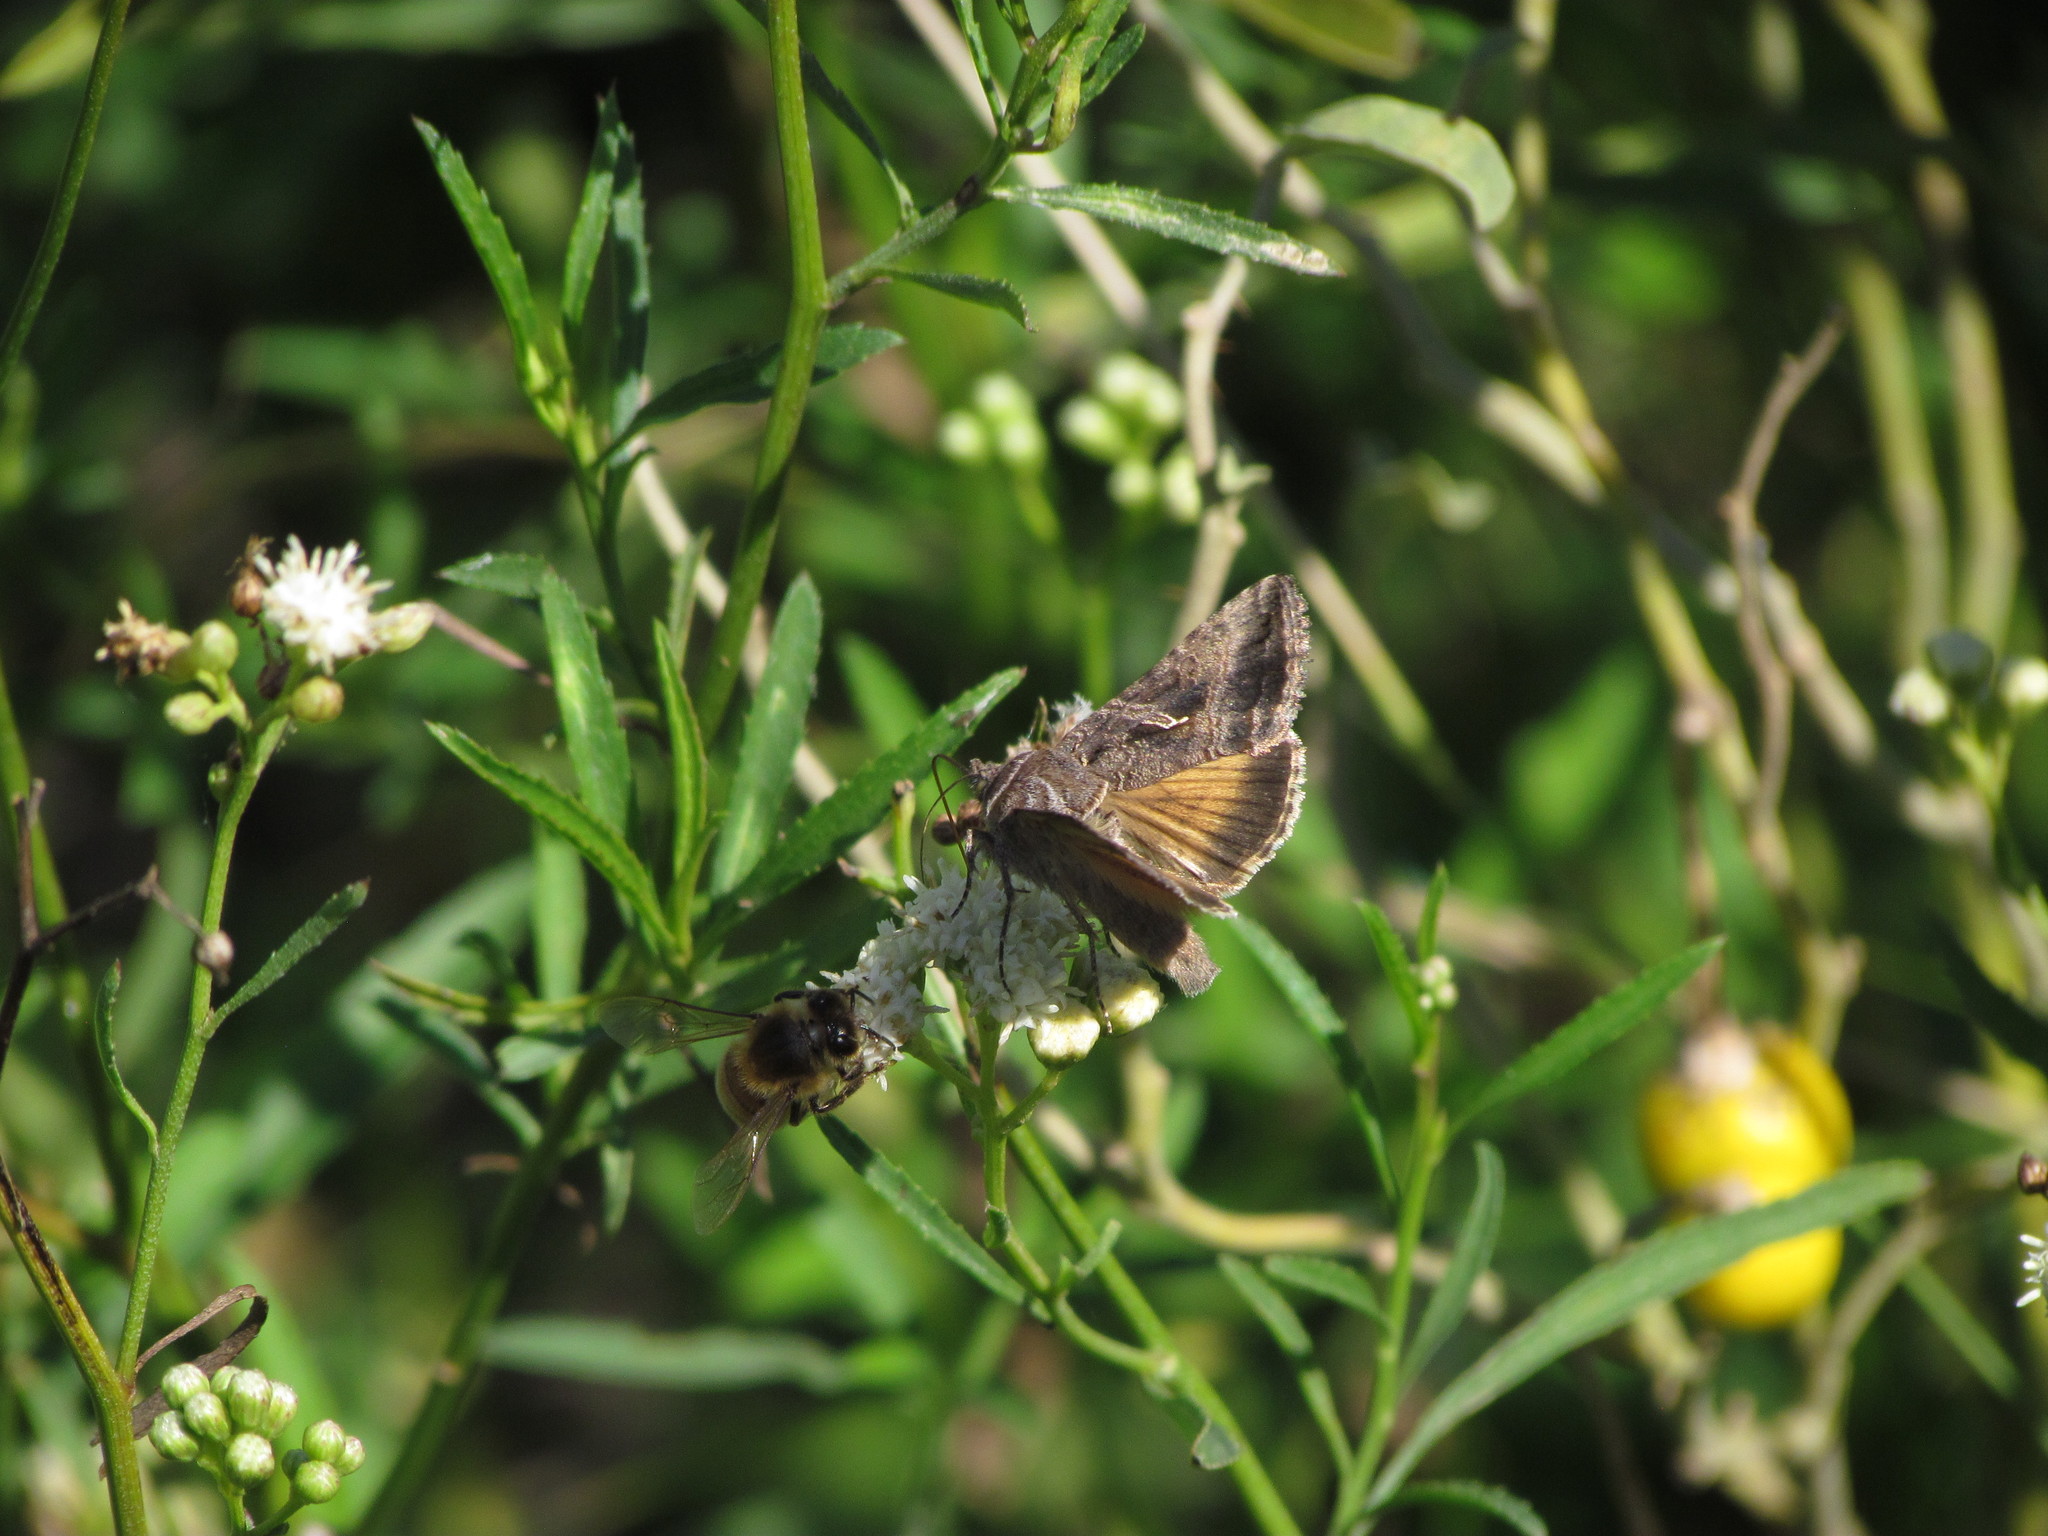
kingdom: Animalia
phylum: Arthropoda
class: Insecta
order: Lepidoptera
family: Noctuidae
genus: Rachiplusia
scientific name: Rachiplusia nu
